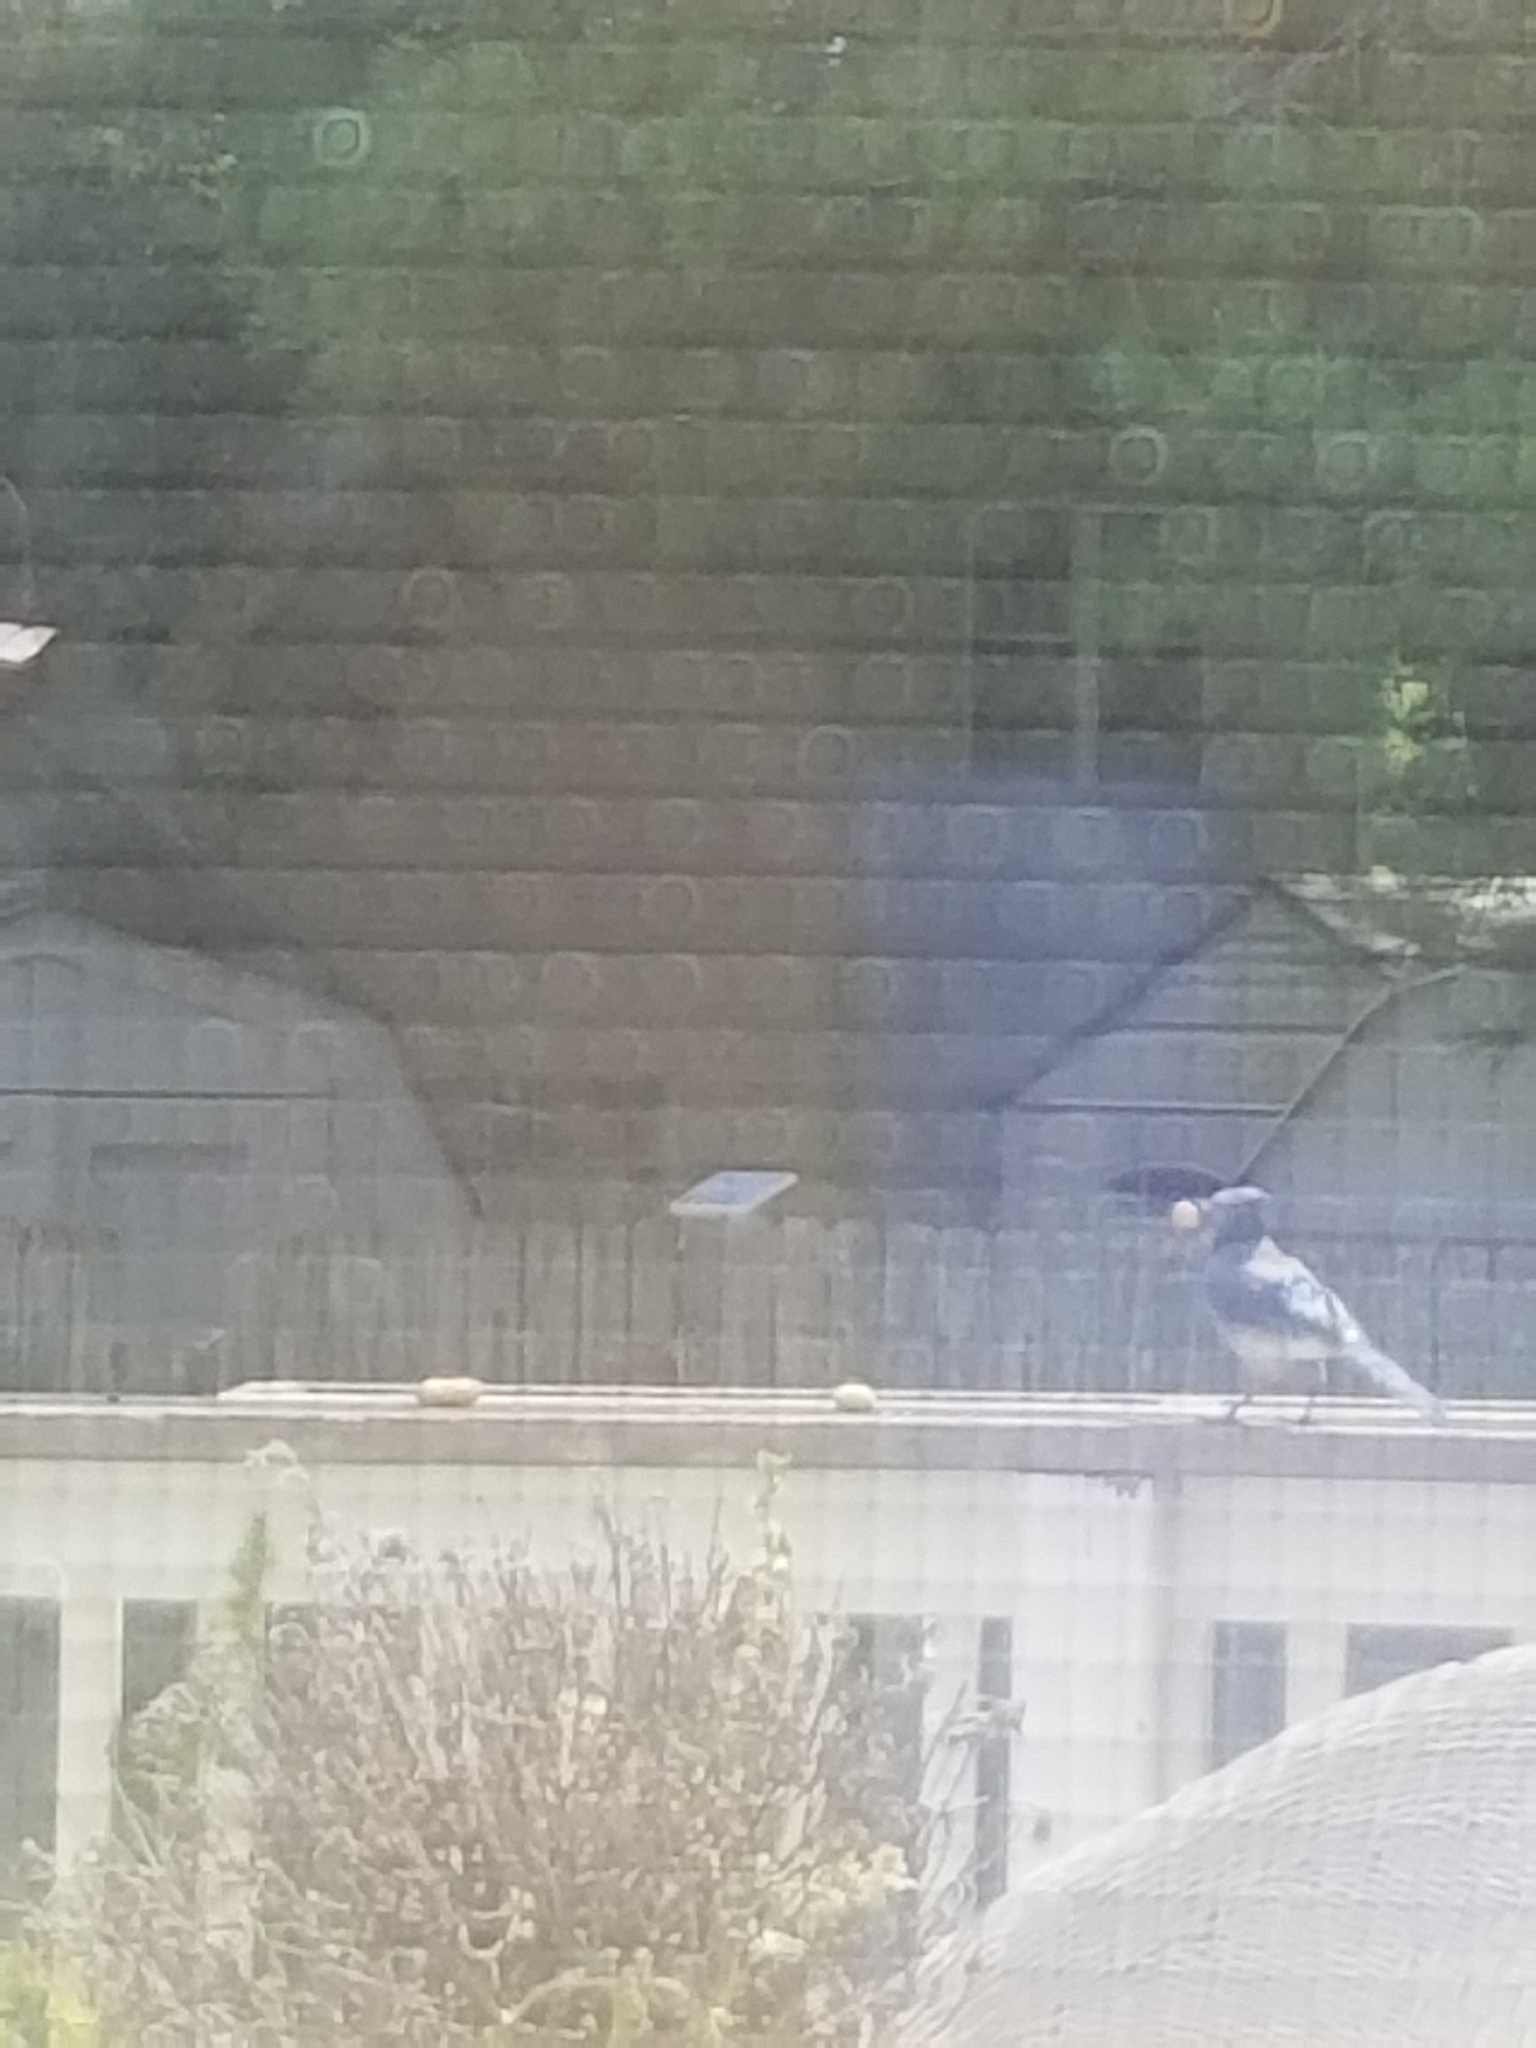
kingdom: Animalia
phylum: Chordata
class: Aves
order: Passeriformes
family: Corvidae
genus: Cyanocitta
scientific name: Cyanocitta cristata
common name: Blue jay
